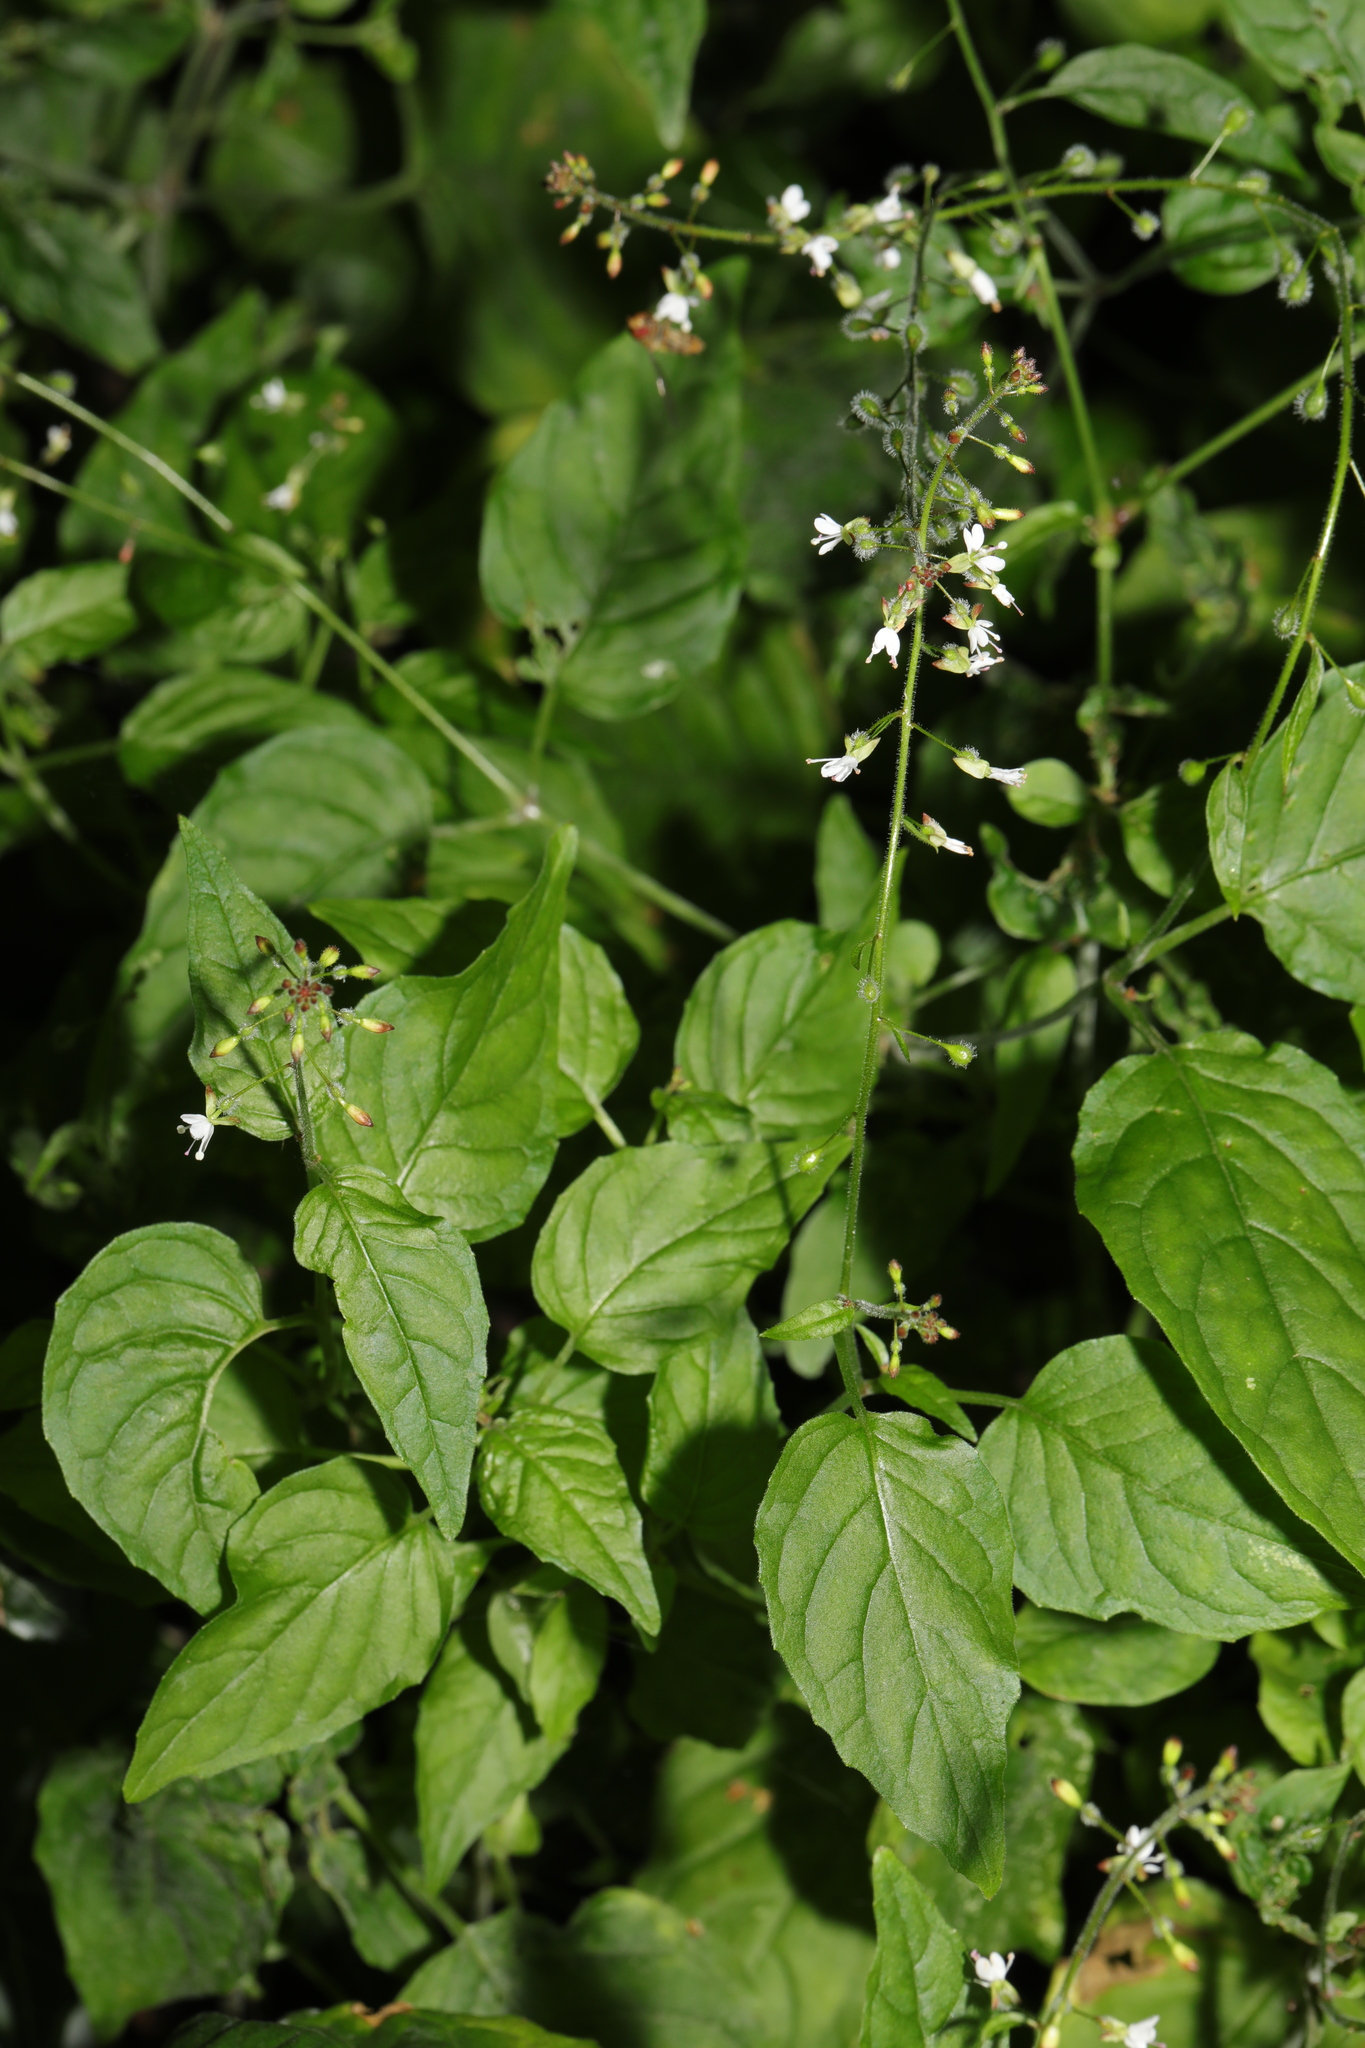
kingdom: Plantae
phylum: Tracheophyta
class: Magnoliopsida
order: Myrtales
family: Onagraceae
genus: Circaea
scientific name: Circaea lutetiana
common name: Enchanter's-nightshade
